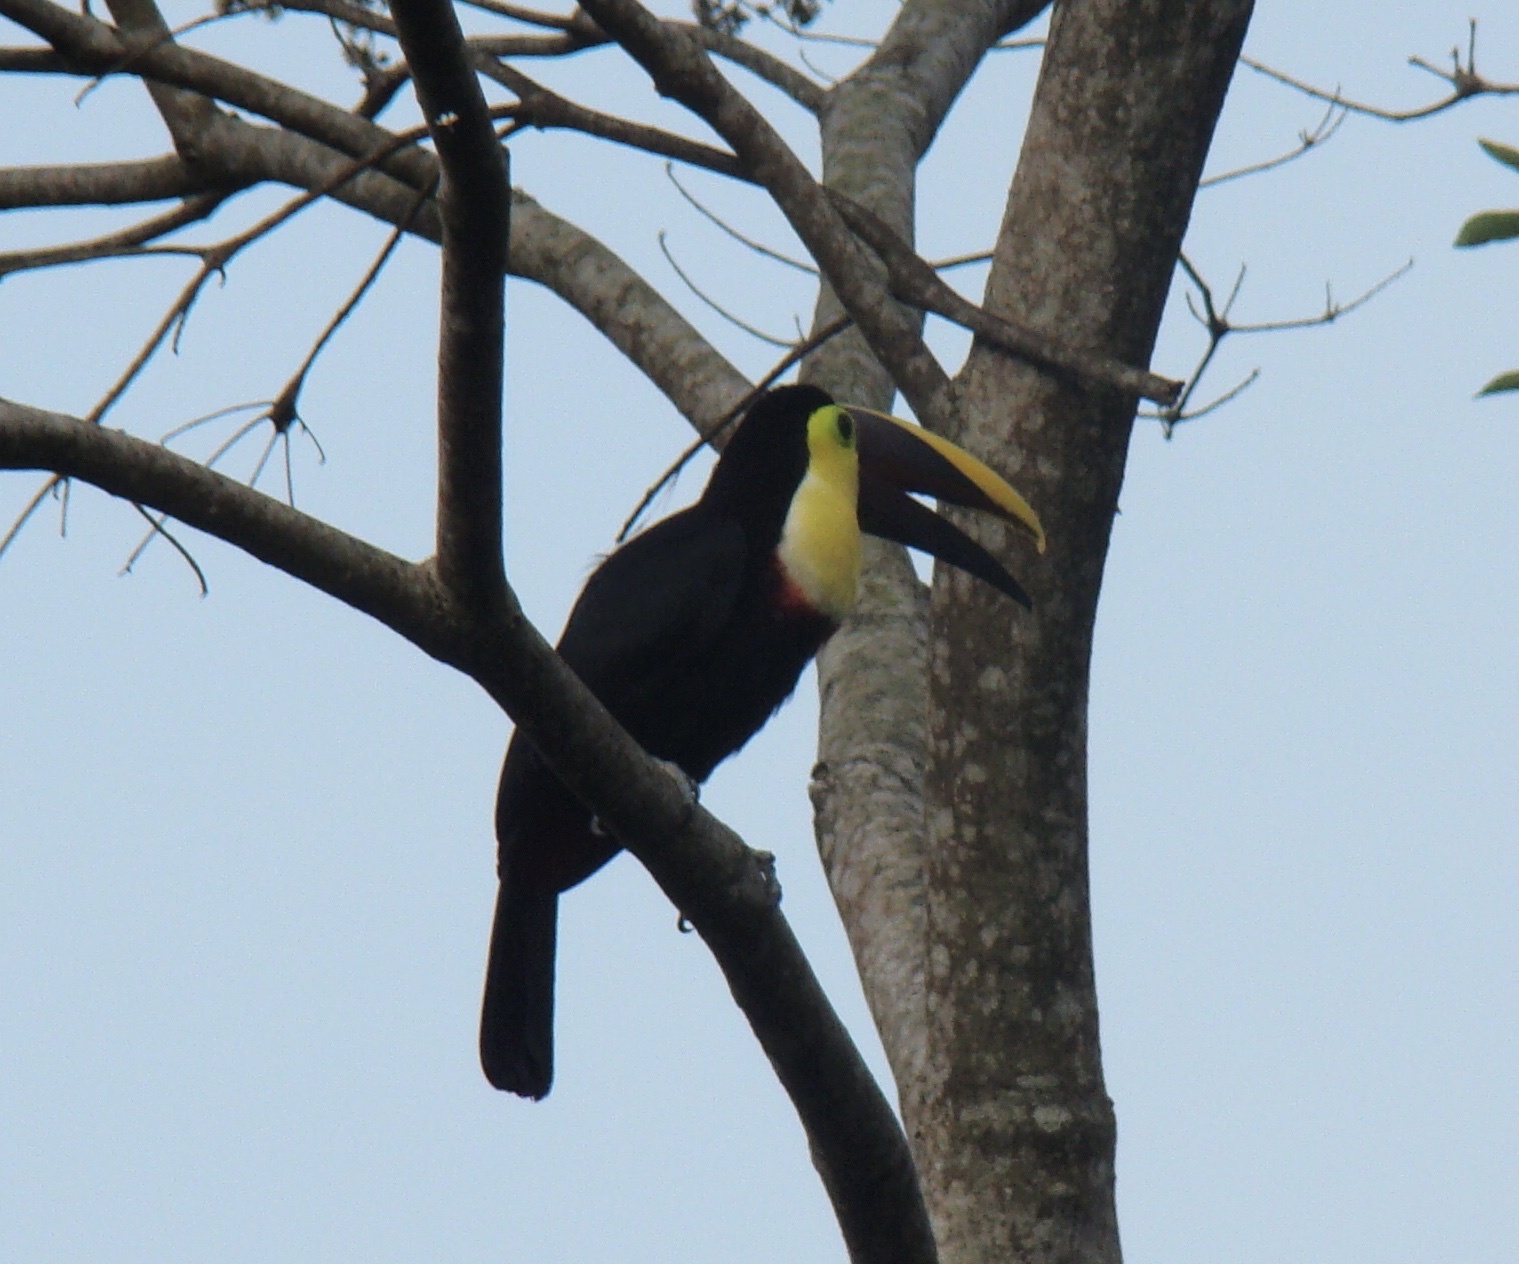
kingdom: Animalia
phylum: Chordata
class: Aves
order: Piciformes
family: Ramphastidae
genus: Ramphastos
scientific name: Ramphastos ambiguus
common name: Yellow-throated toucan
